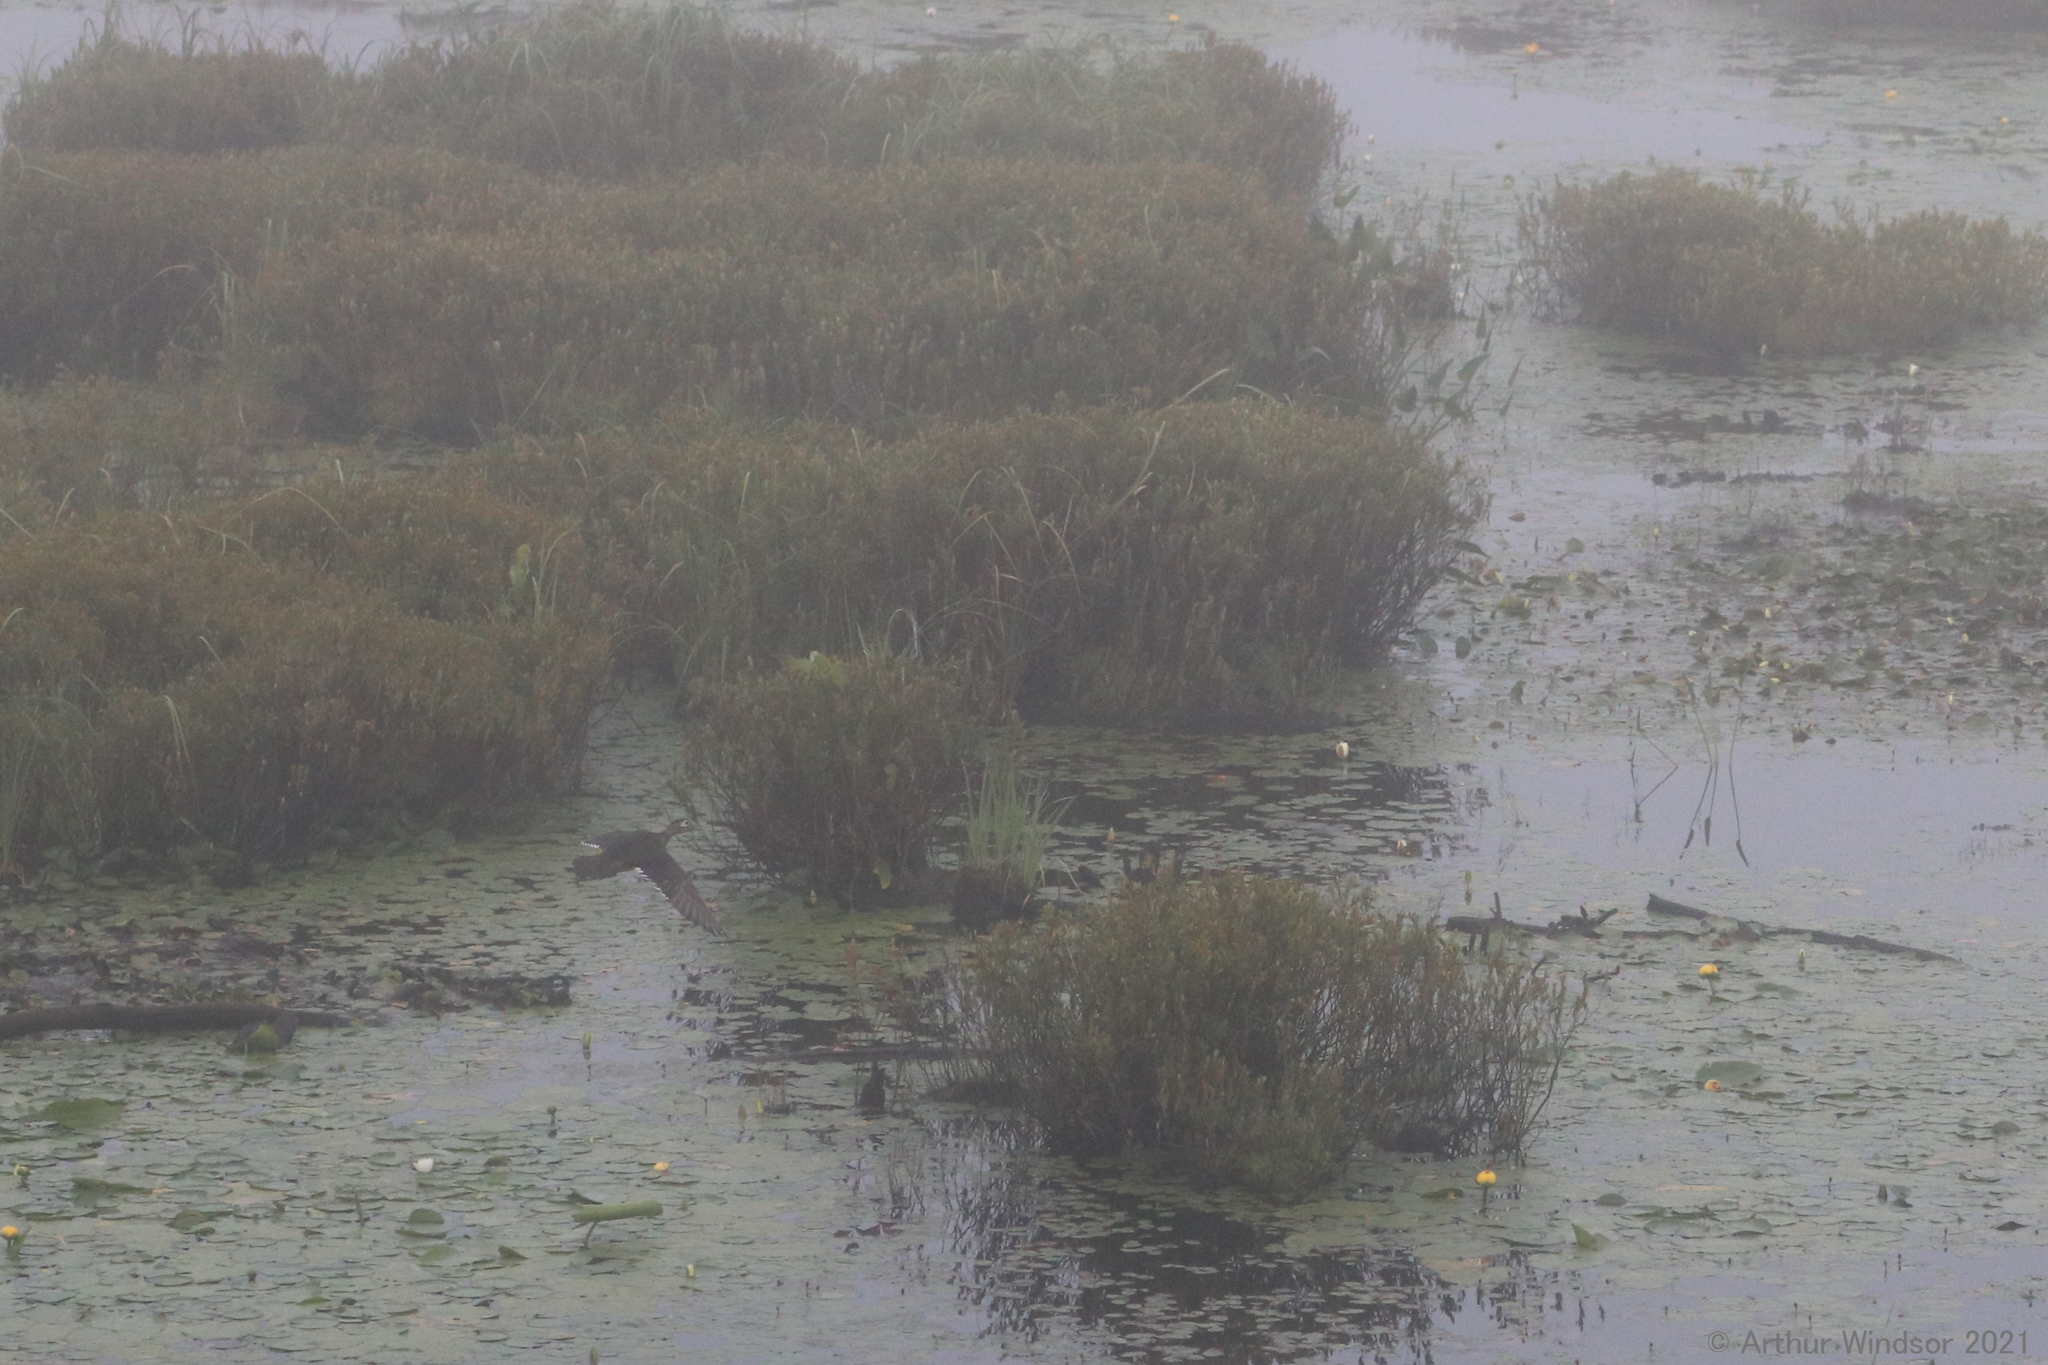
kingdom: Animalia
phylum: Chordata
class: Aves
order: Anseriformes
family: Anatidae
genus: Aix
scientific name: Aix sponsa
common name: Wood duck
